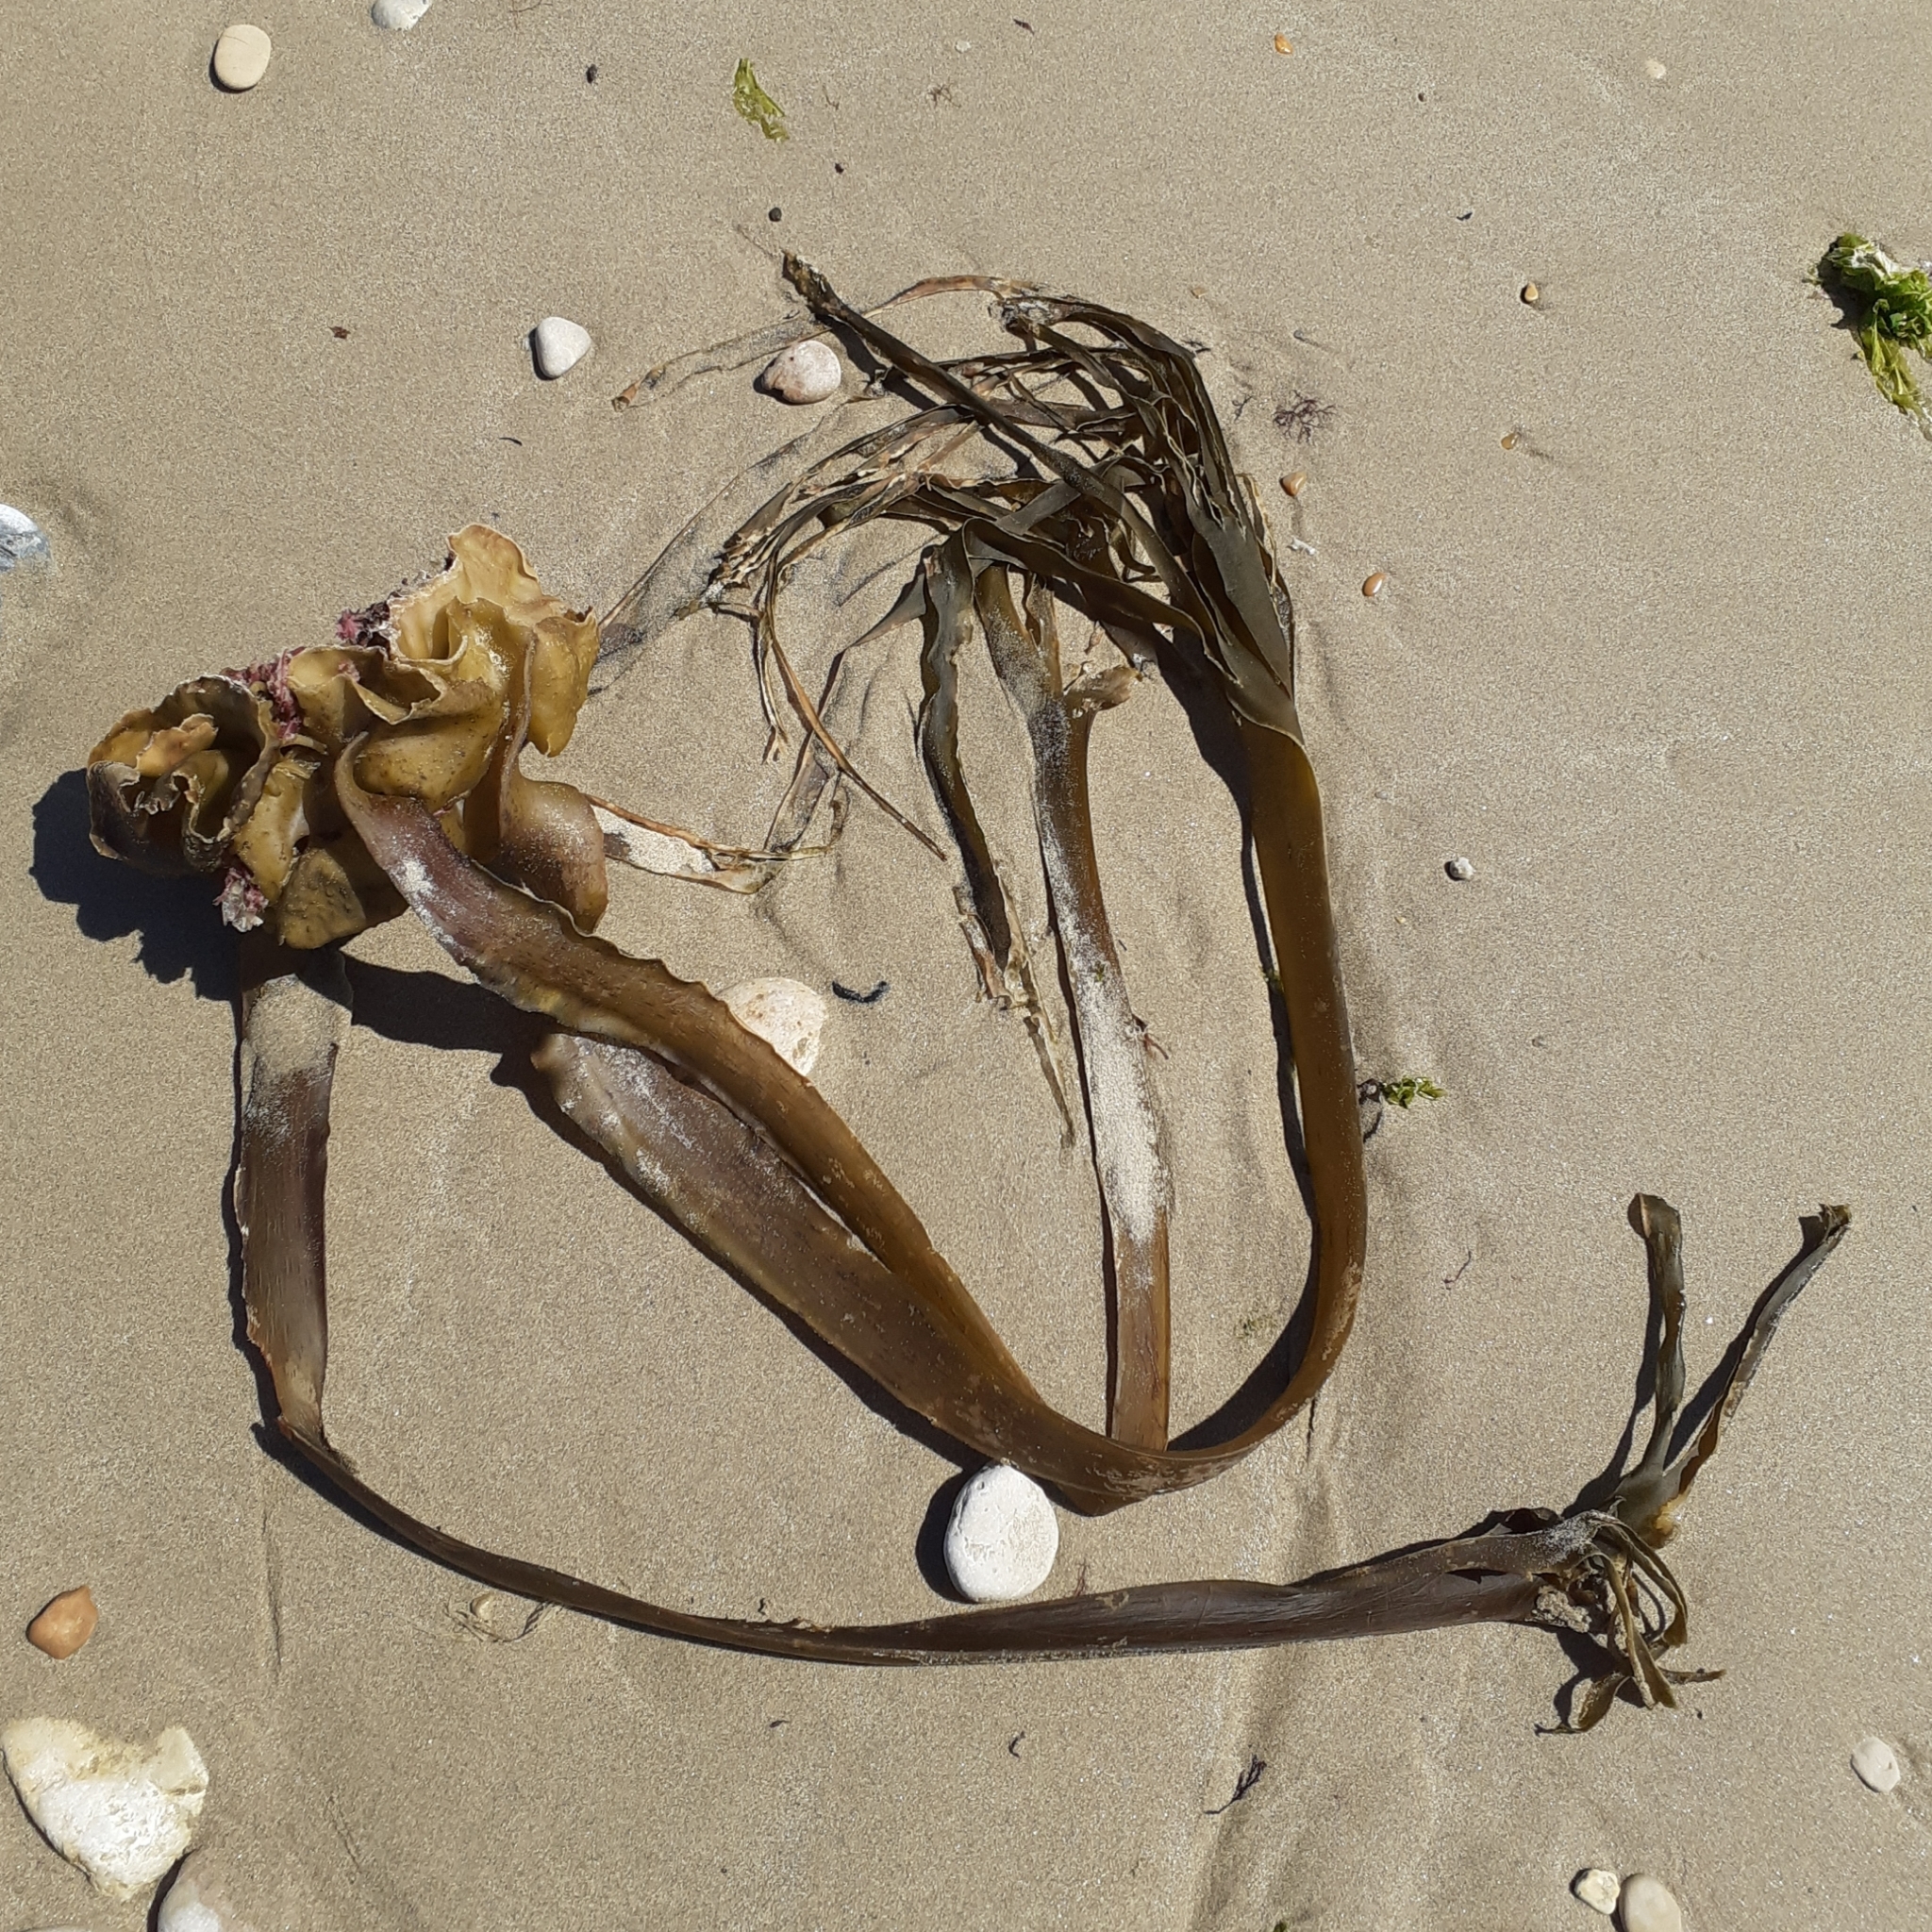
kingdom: Chromista
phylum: Ochrophyta
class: Phaeophyceae
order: Tilopteridales
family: Phyllariaceae
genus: Saccorhiza
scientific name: Saccorhiza polyschides
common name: Furbelows
